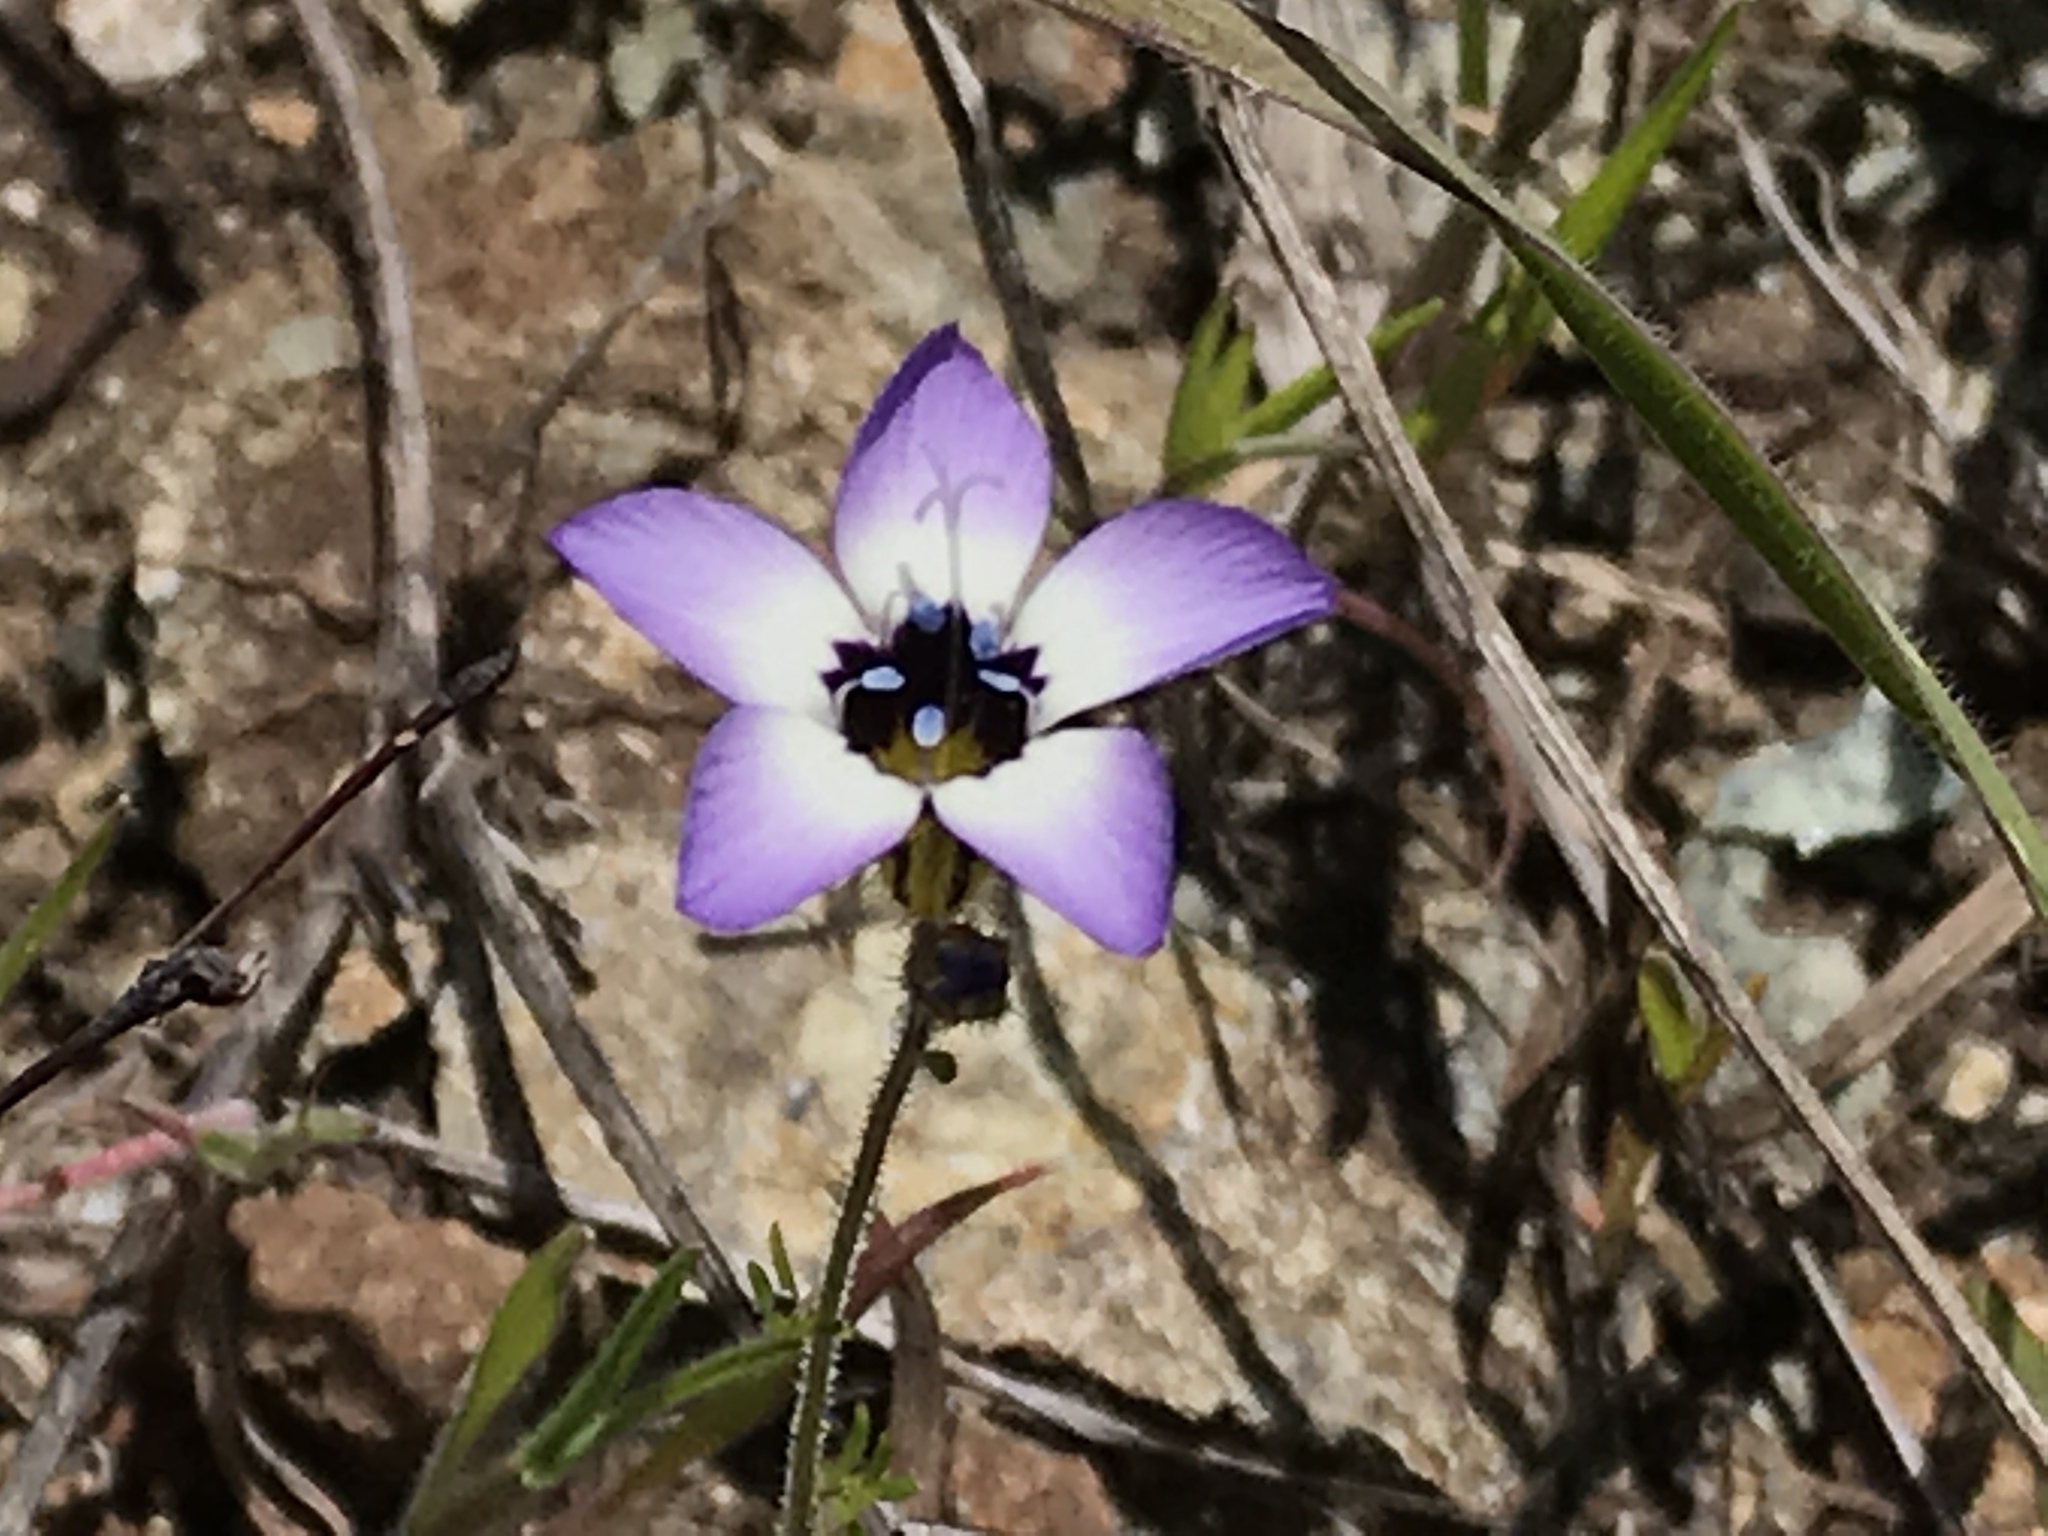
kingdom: Plantae
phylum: Tracheophyta
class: Magnoliopsida
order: Ericales
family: Polemoniaceae
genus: Gilia
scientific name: Gilia tricolor
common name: Bird's-eyes
